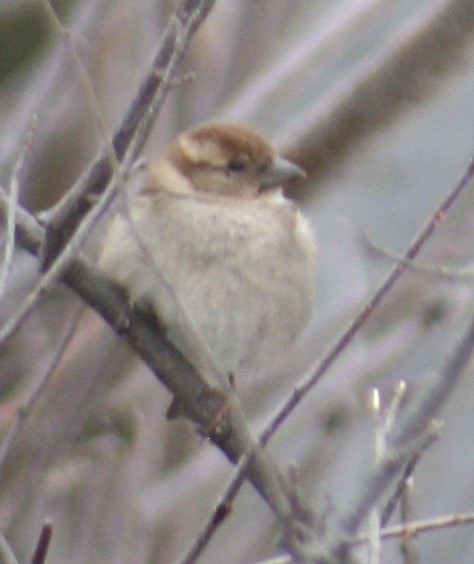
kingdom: Animalia
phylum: Chordata
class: Aves
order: Passeriformes
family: Passeridae
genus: Passer
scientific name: Passer domesticus
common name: House sparrow
